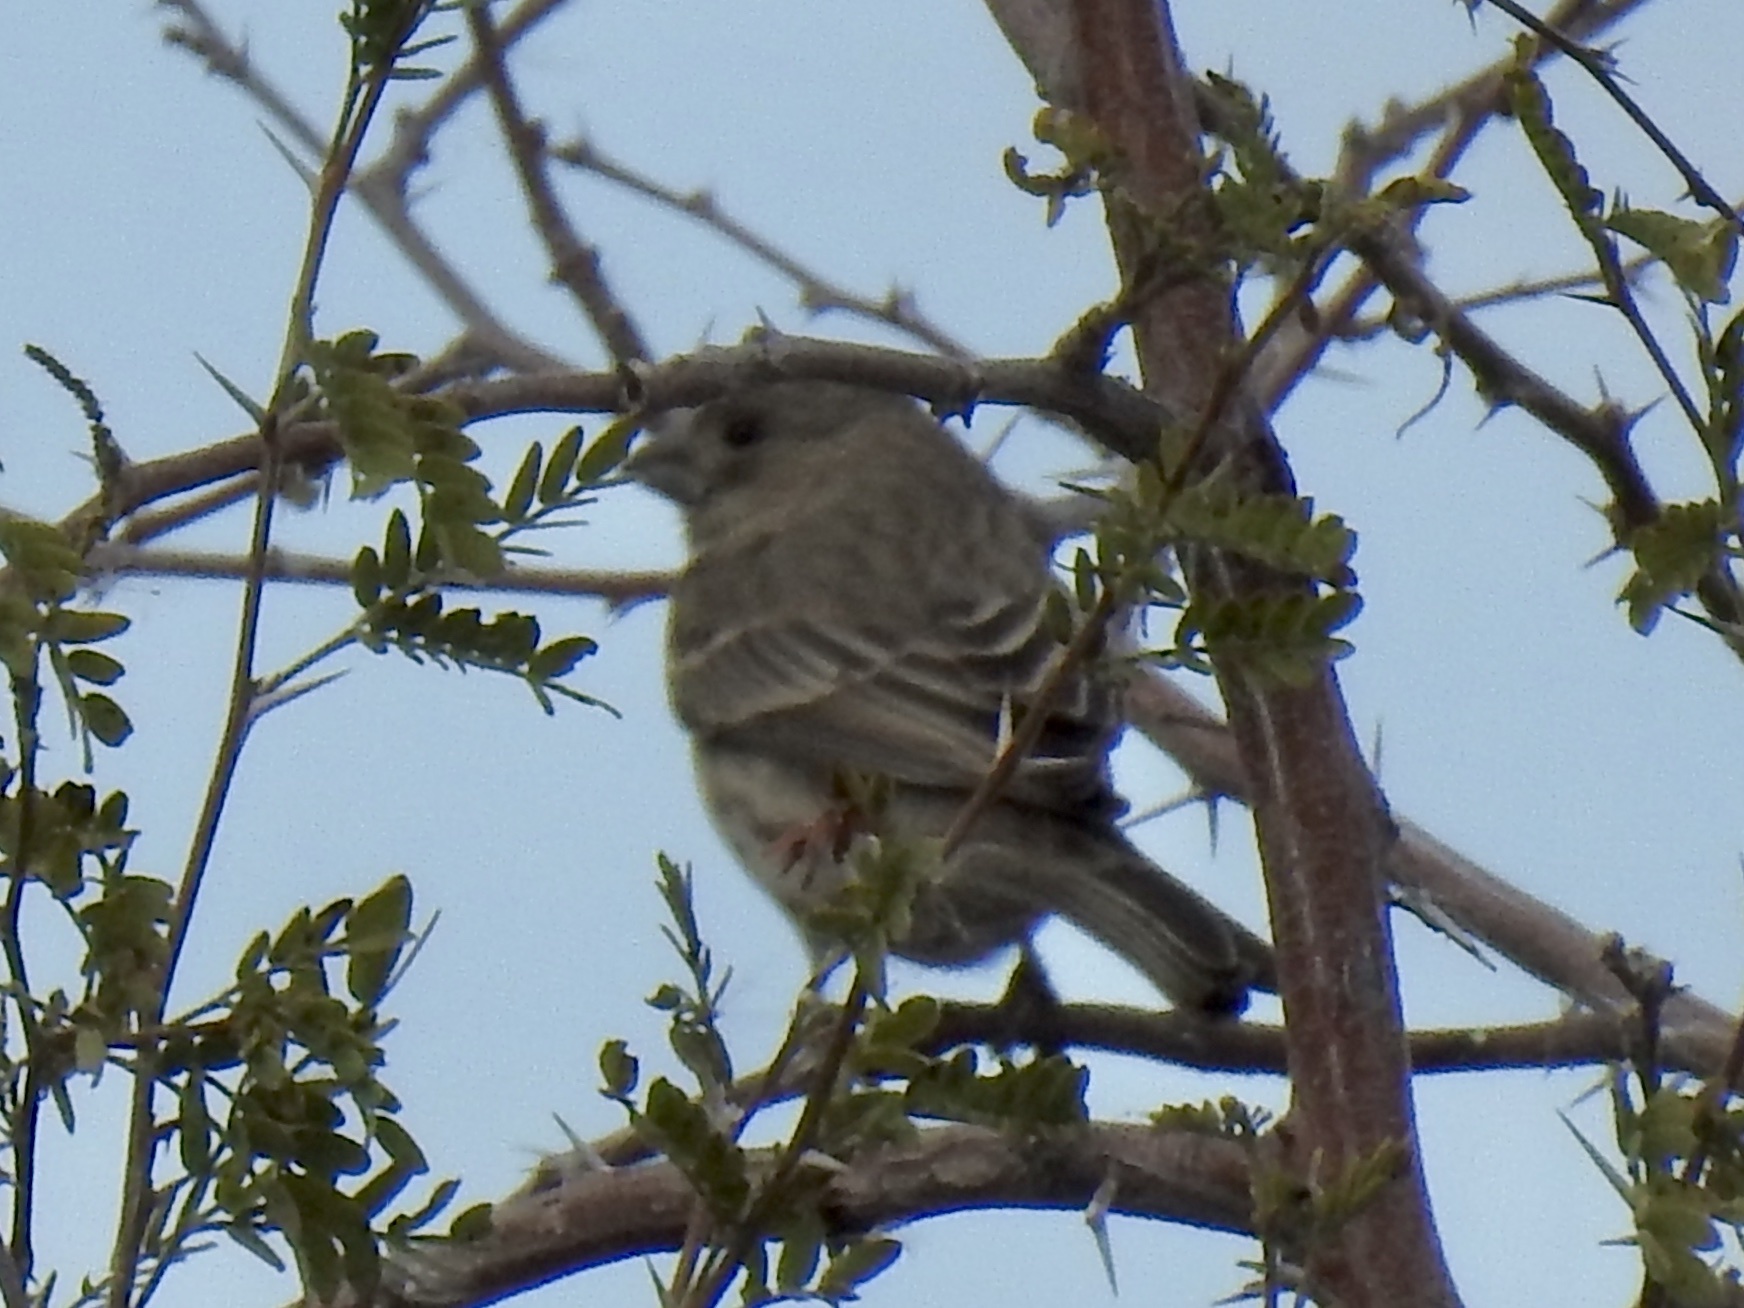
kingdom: Animalia
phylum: Chordata
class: Aves
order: Passeriformes
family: Fringillidae
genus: Haemorhous
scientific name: Haemorhous mexicanus
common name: House finch
